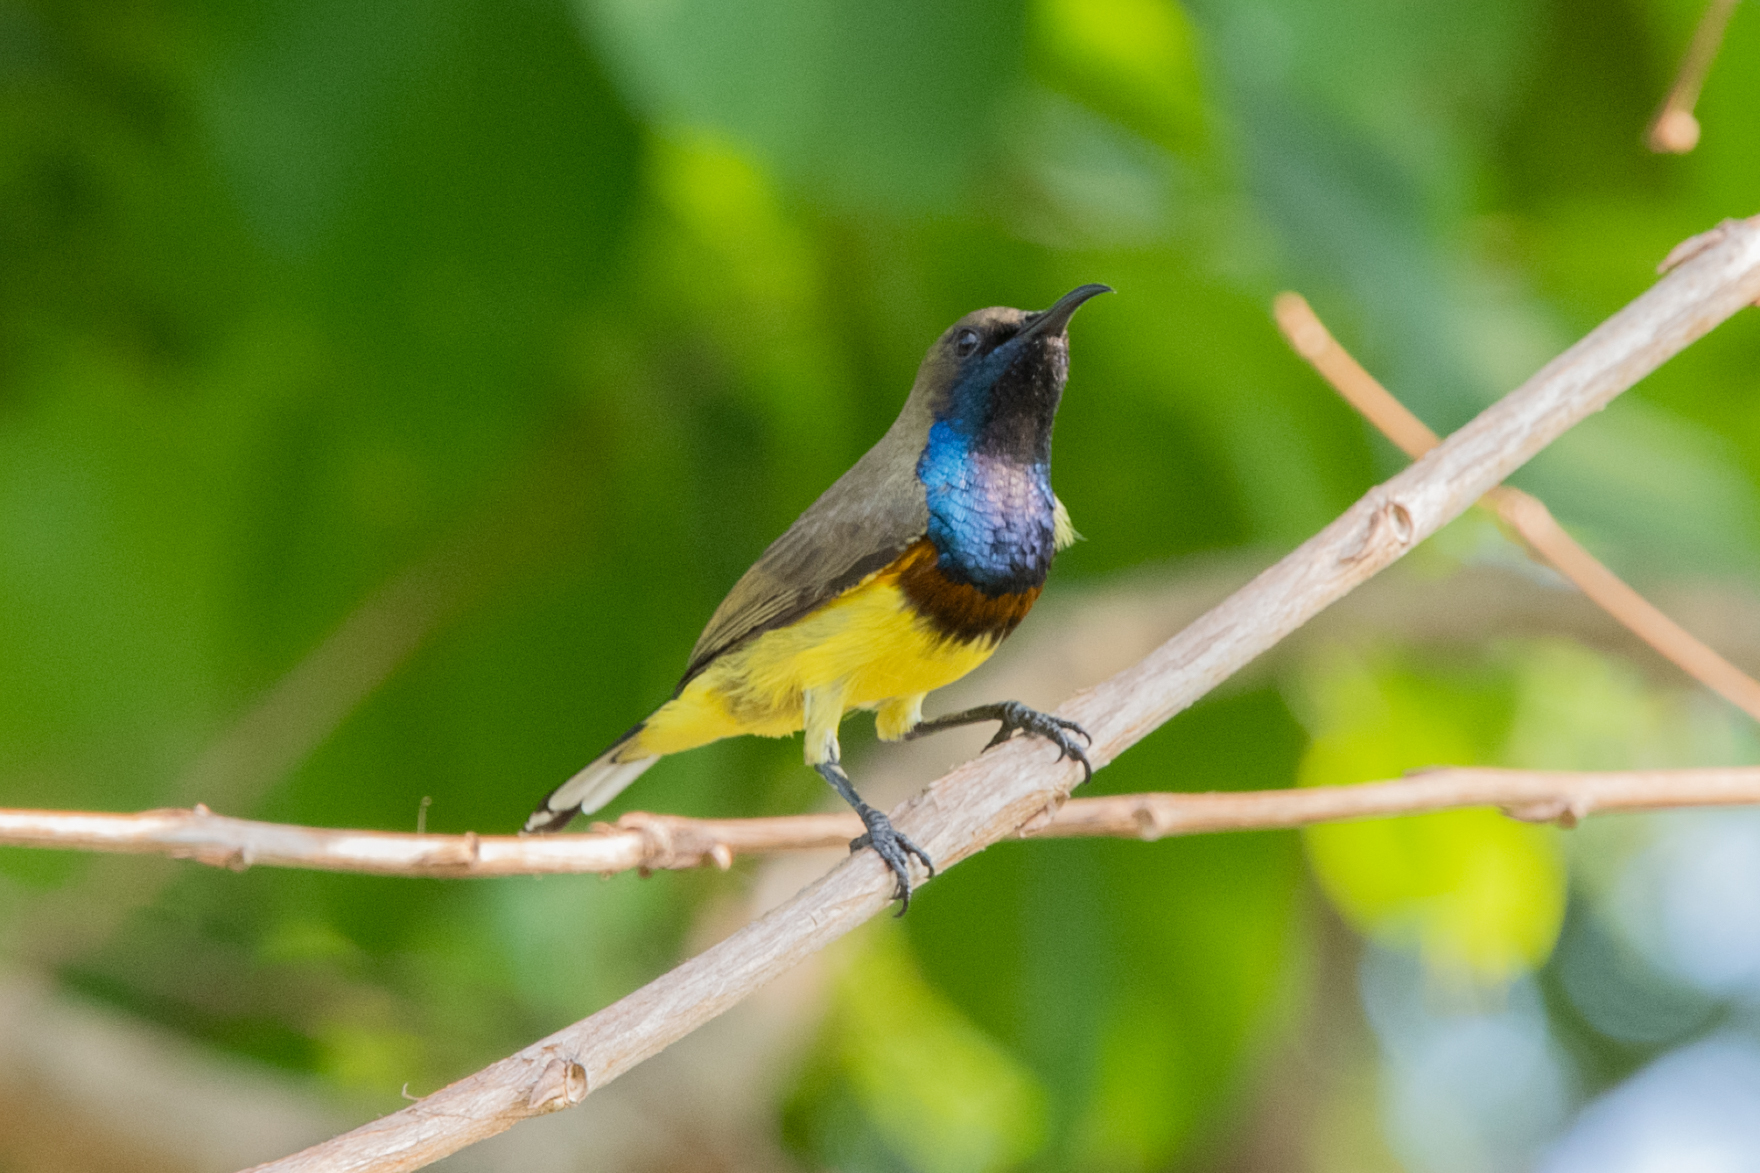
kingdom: Animalia
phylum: Chordata
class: Aves
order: Passeriformes
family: Nectariniidae
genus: Cinnyris
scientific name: Cinnyris
